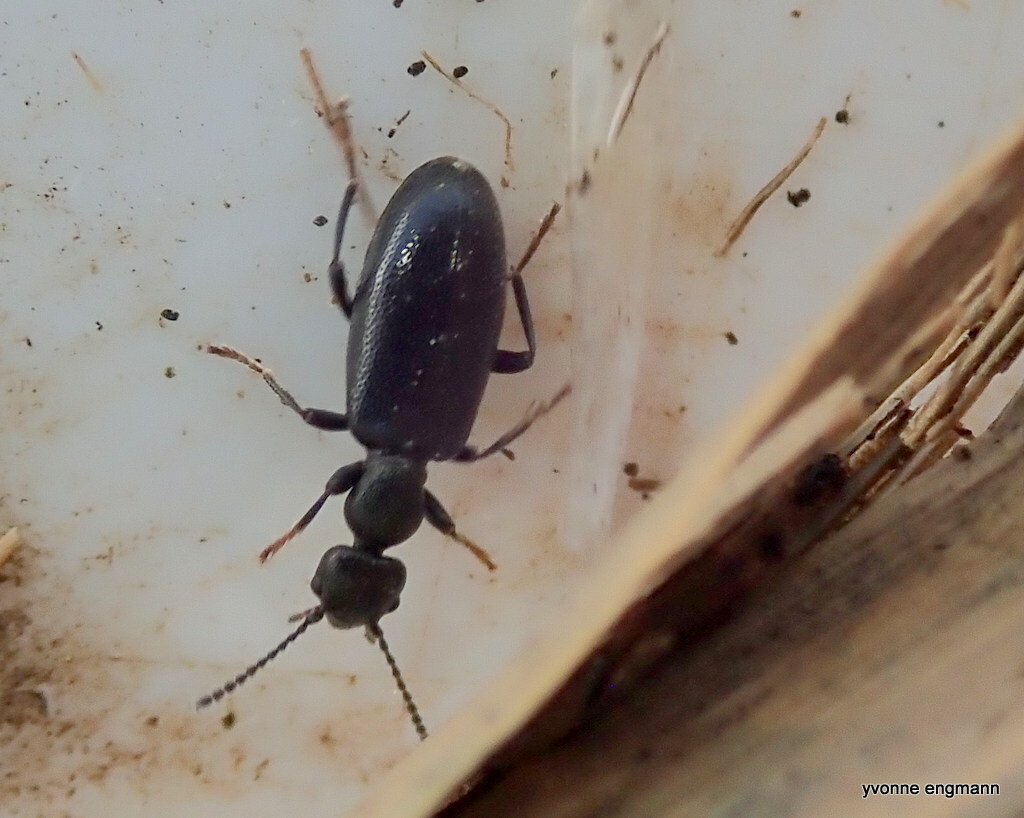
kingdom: Animalia
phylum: Arthropoda
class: Insecta
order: Coleoptera
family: Anthicidae
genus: Anthicus
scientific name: Anthicus ater
